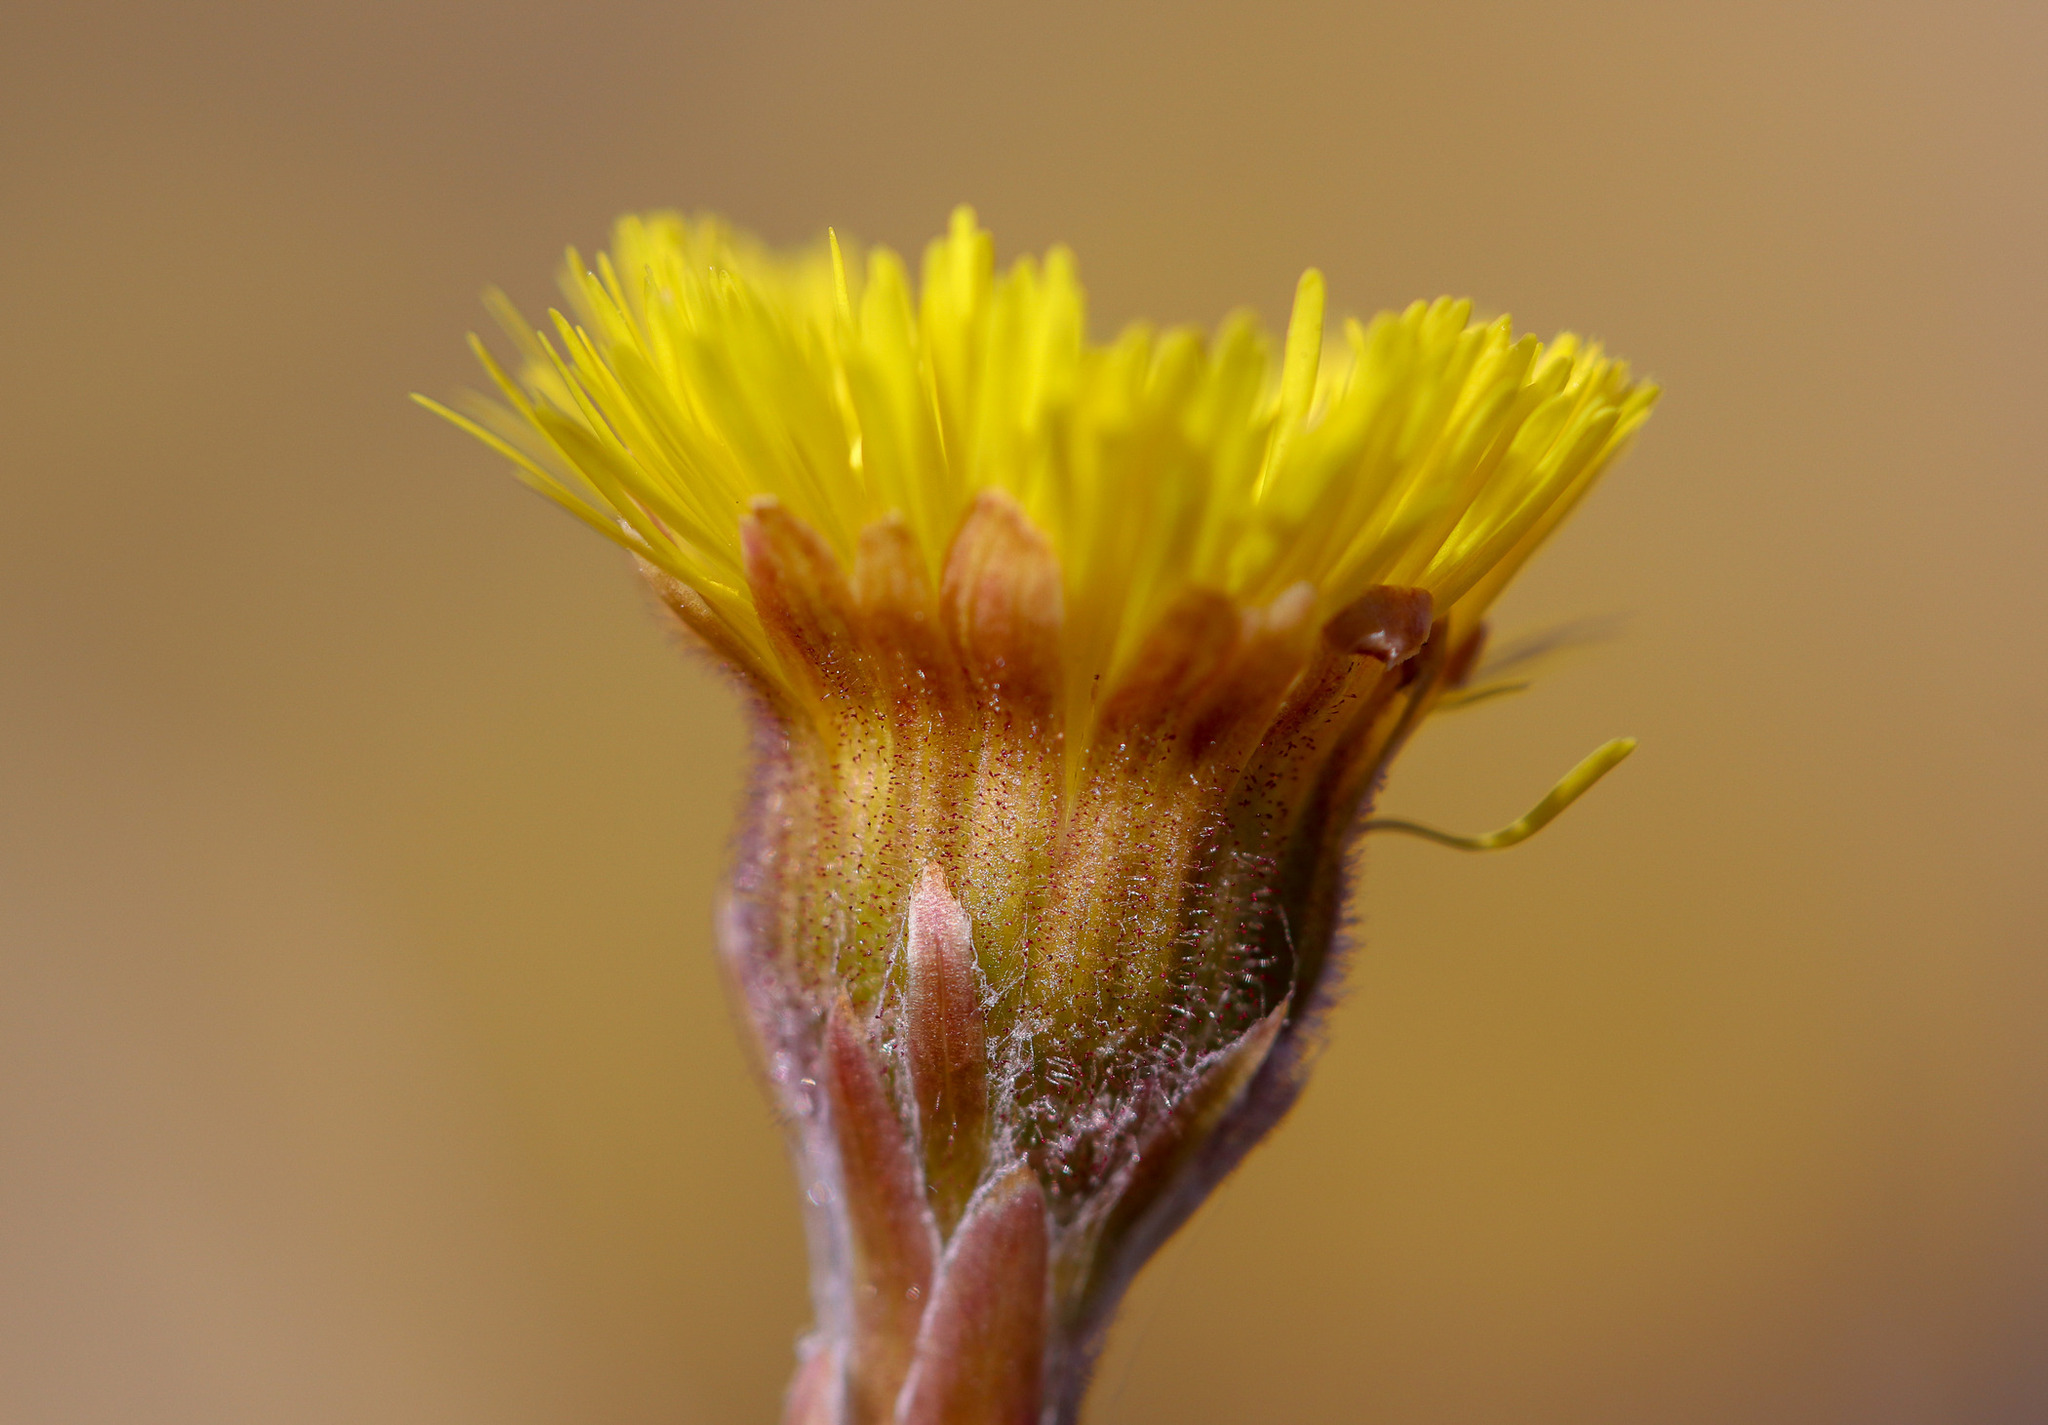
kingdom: Plantae
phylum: Tracheophyta
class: Magnoliopsida
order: Asterales
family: Asteraceae
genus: Tussilago
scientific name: Tussilago farfara
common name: Coltsfoot
